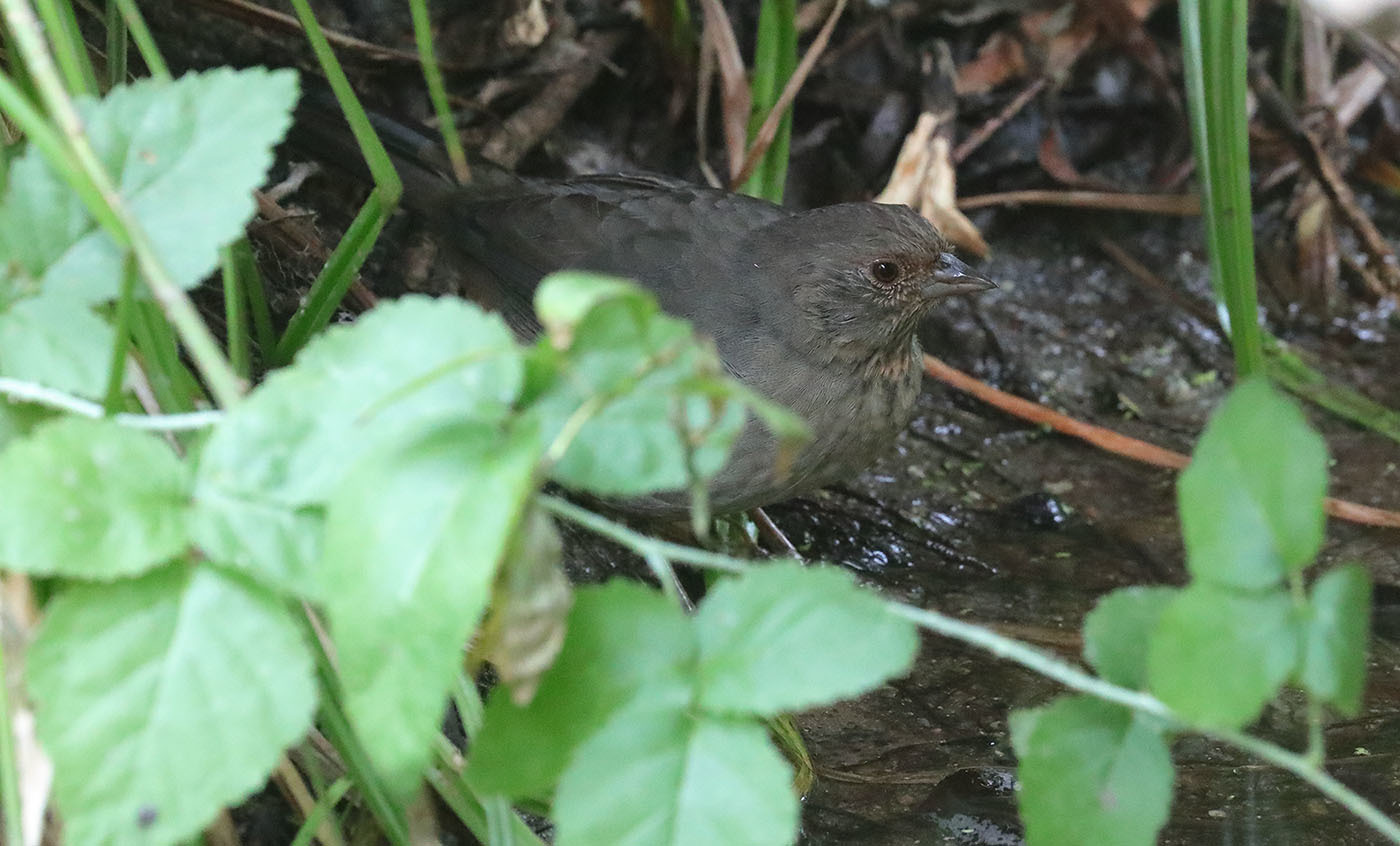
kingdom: Animalia
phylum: Chordata
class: Aves
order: Passeriformes
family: Passerellidae
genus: Melozone
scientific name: Melozone crissalis
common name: California towhee
